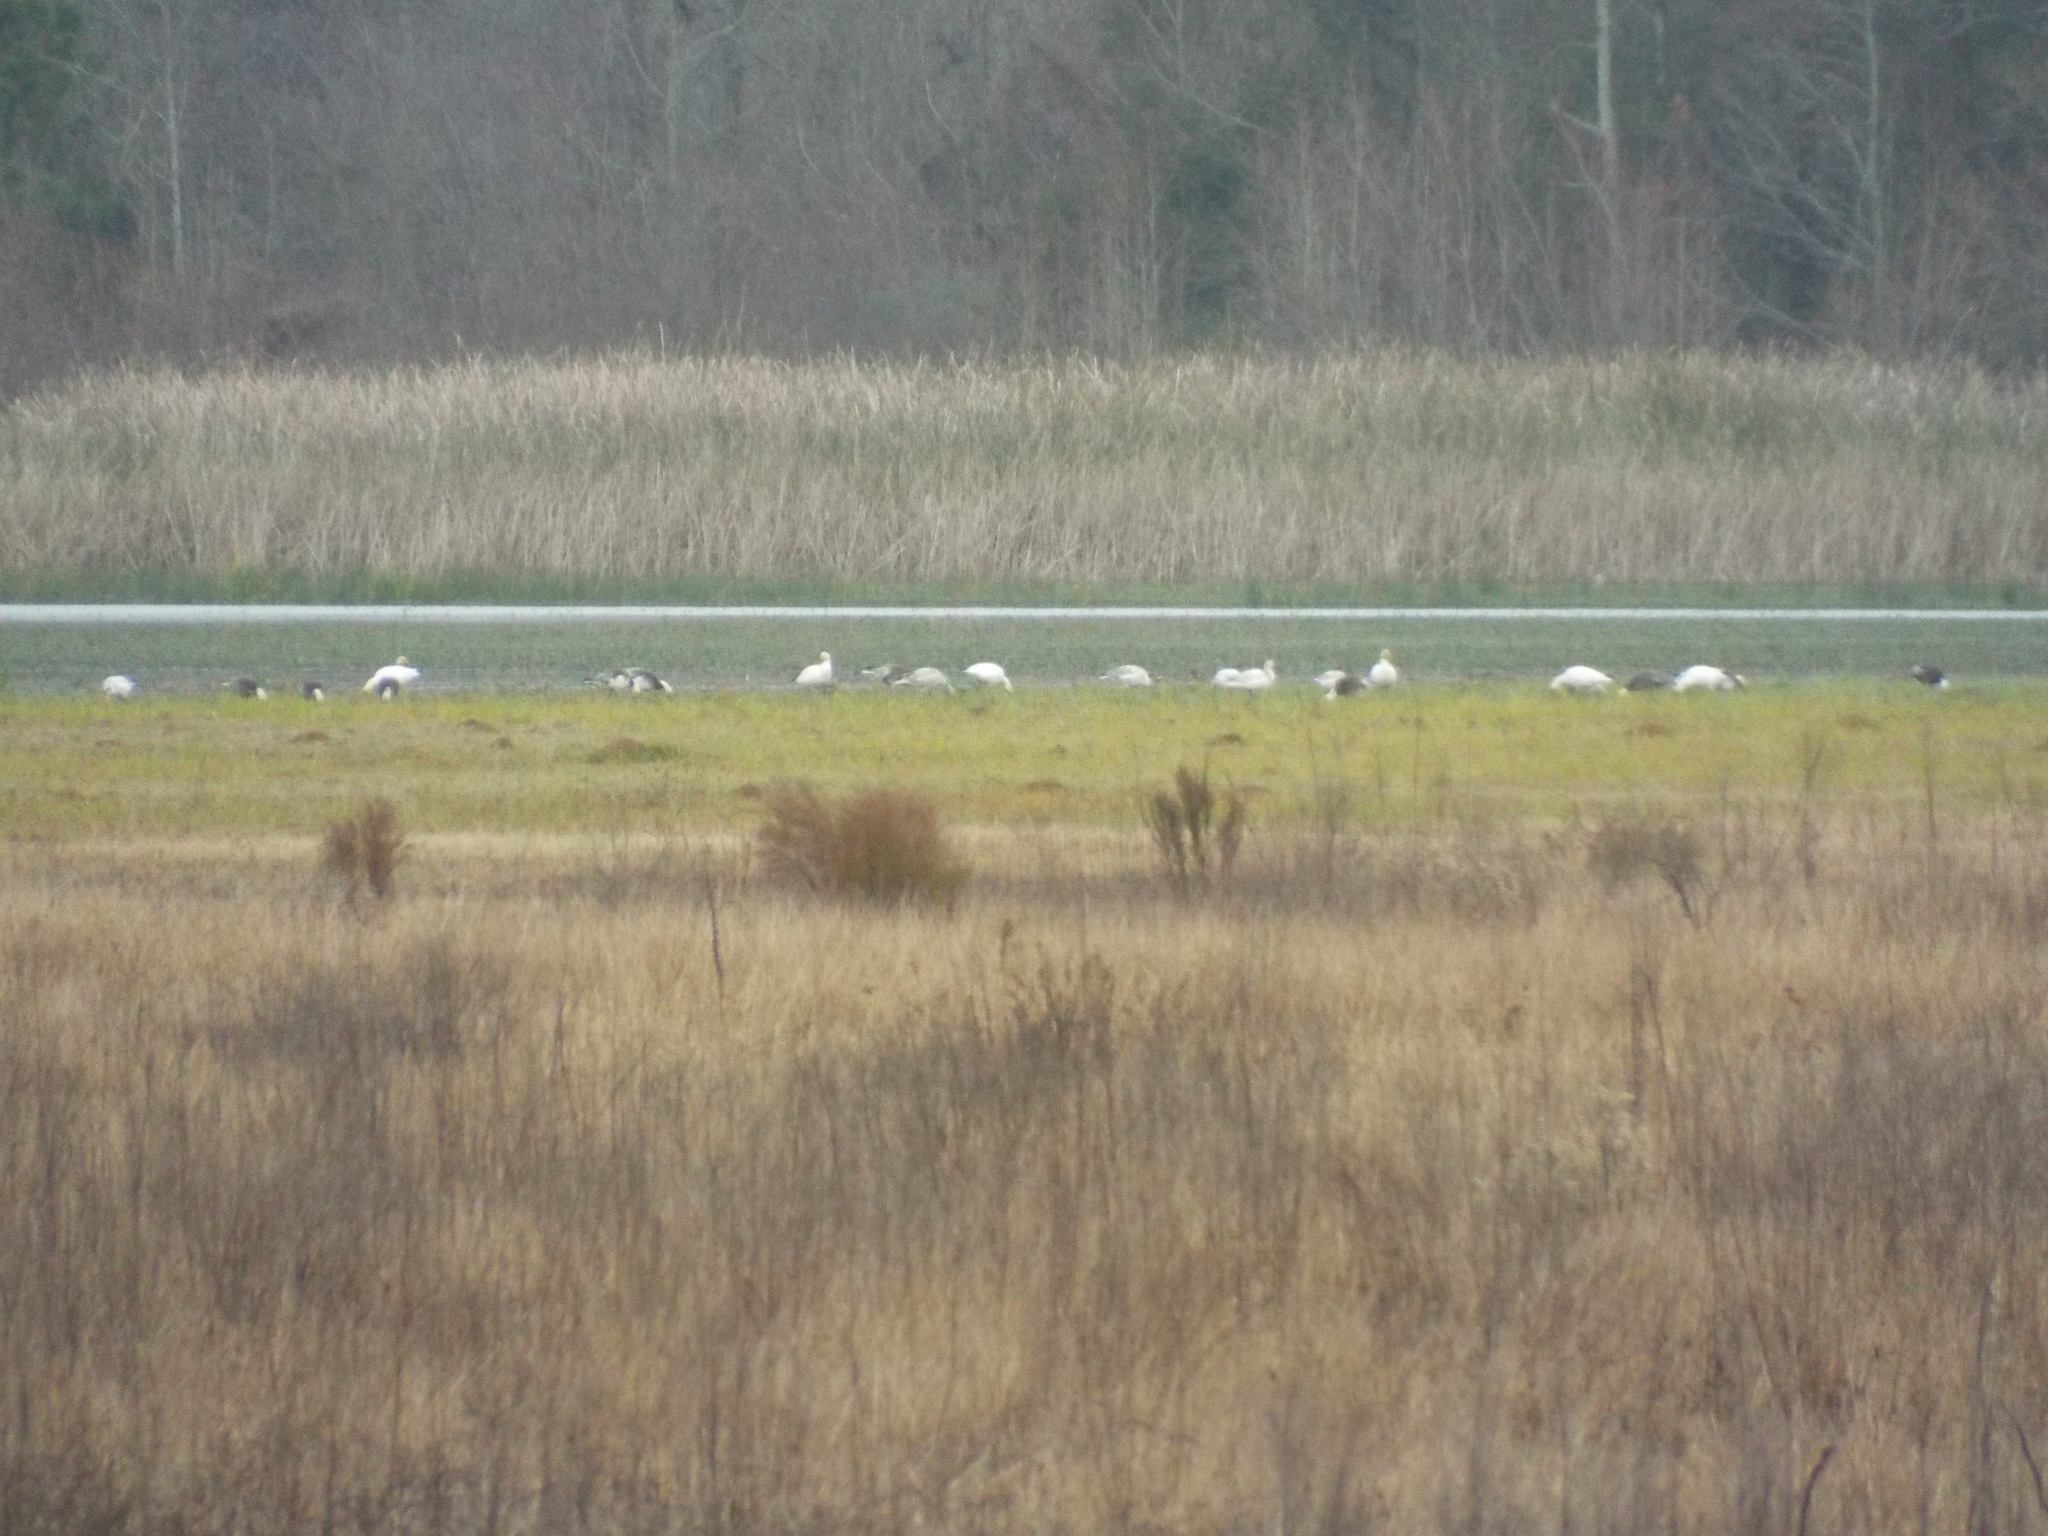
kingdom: Animalia
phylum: Chordata
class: Aves
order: Anseriformes
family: Anatidae
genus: Anser
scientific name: Anser caerulescens
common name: Snow goose
